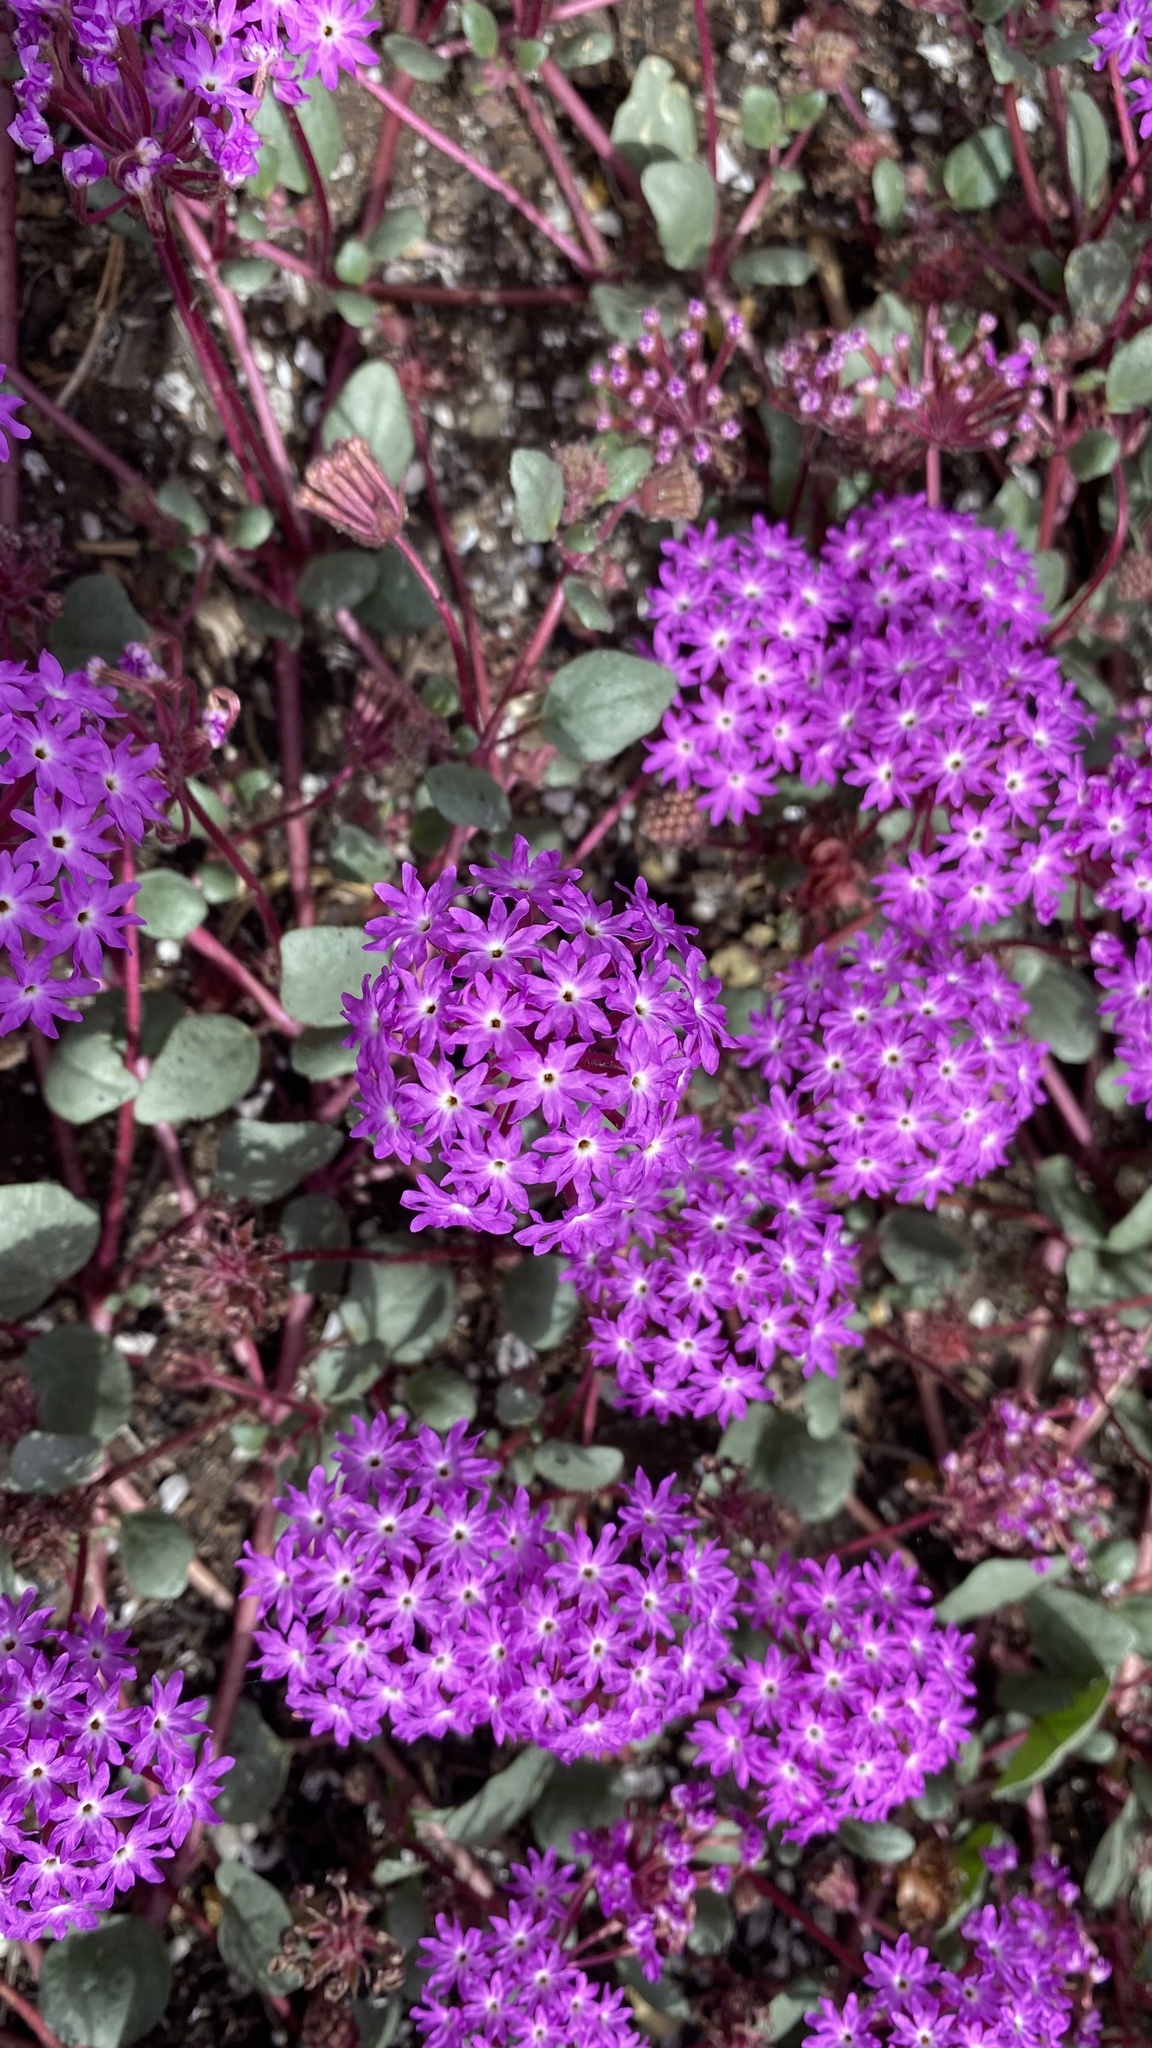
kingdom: Plantae
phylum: Tracheophyta
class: Magnoliopsida
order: Caryophyllales
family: Nyctaginaceae
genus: Abronia
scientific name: Abronia umbellata
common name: Sand-verbena
